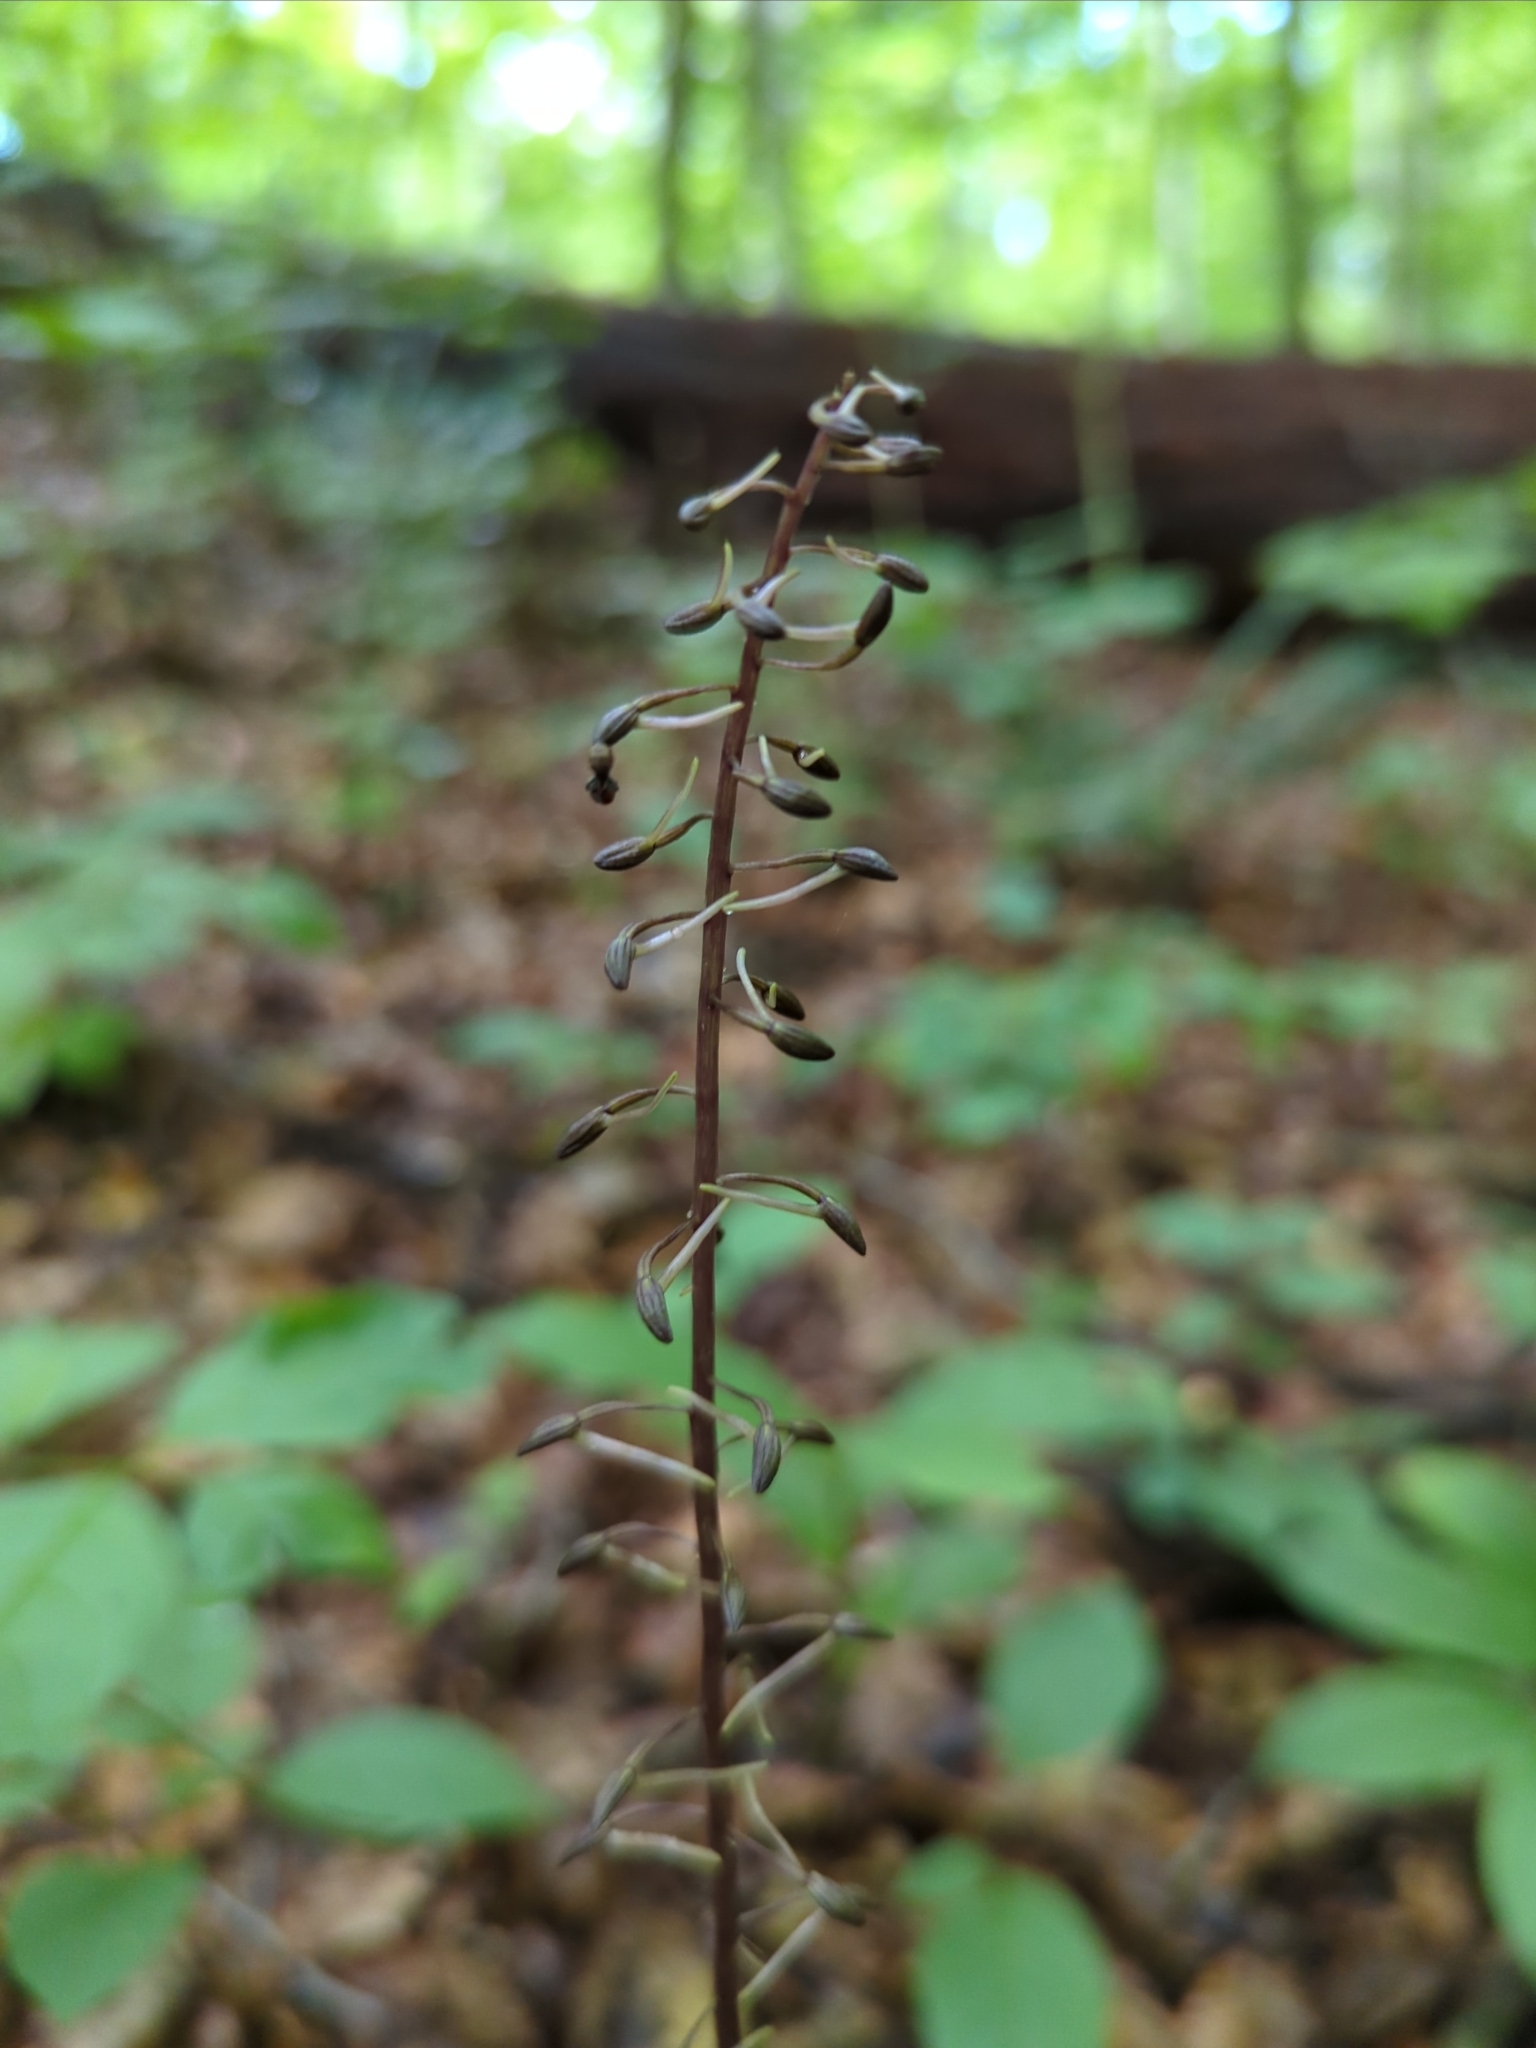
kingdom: Plantae
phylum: Tracheophyta
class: Liliopsida
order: Asparagales
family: Orchidaceae
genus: Tipularia
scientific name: Tipularia discolor
